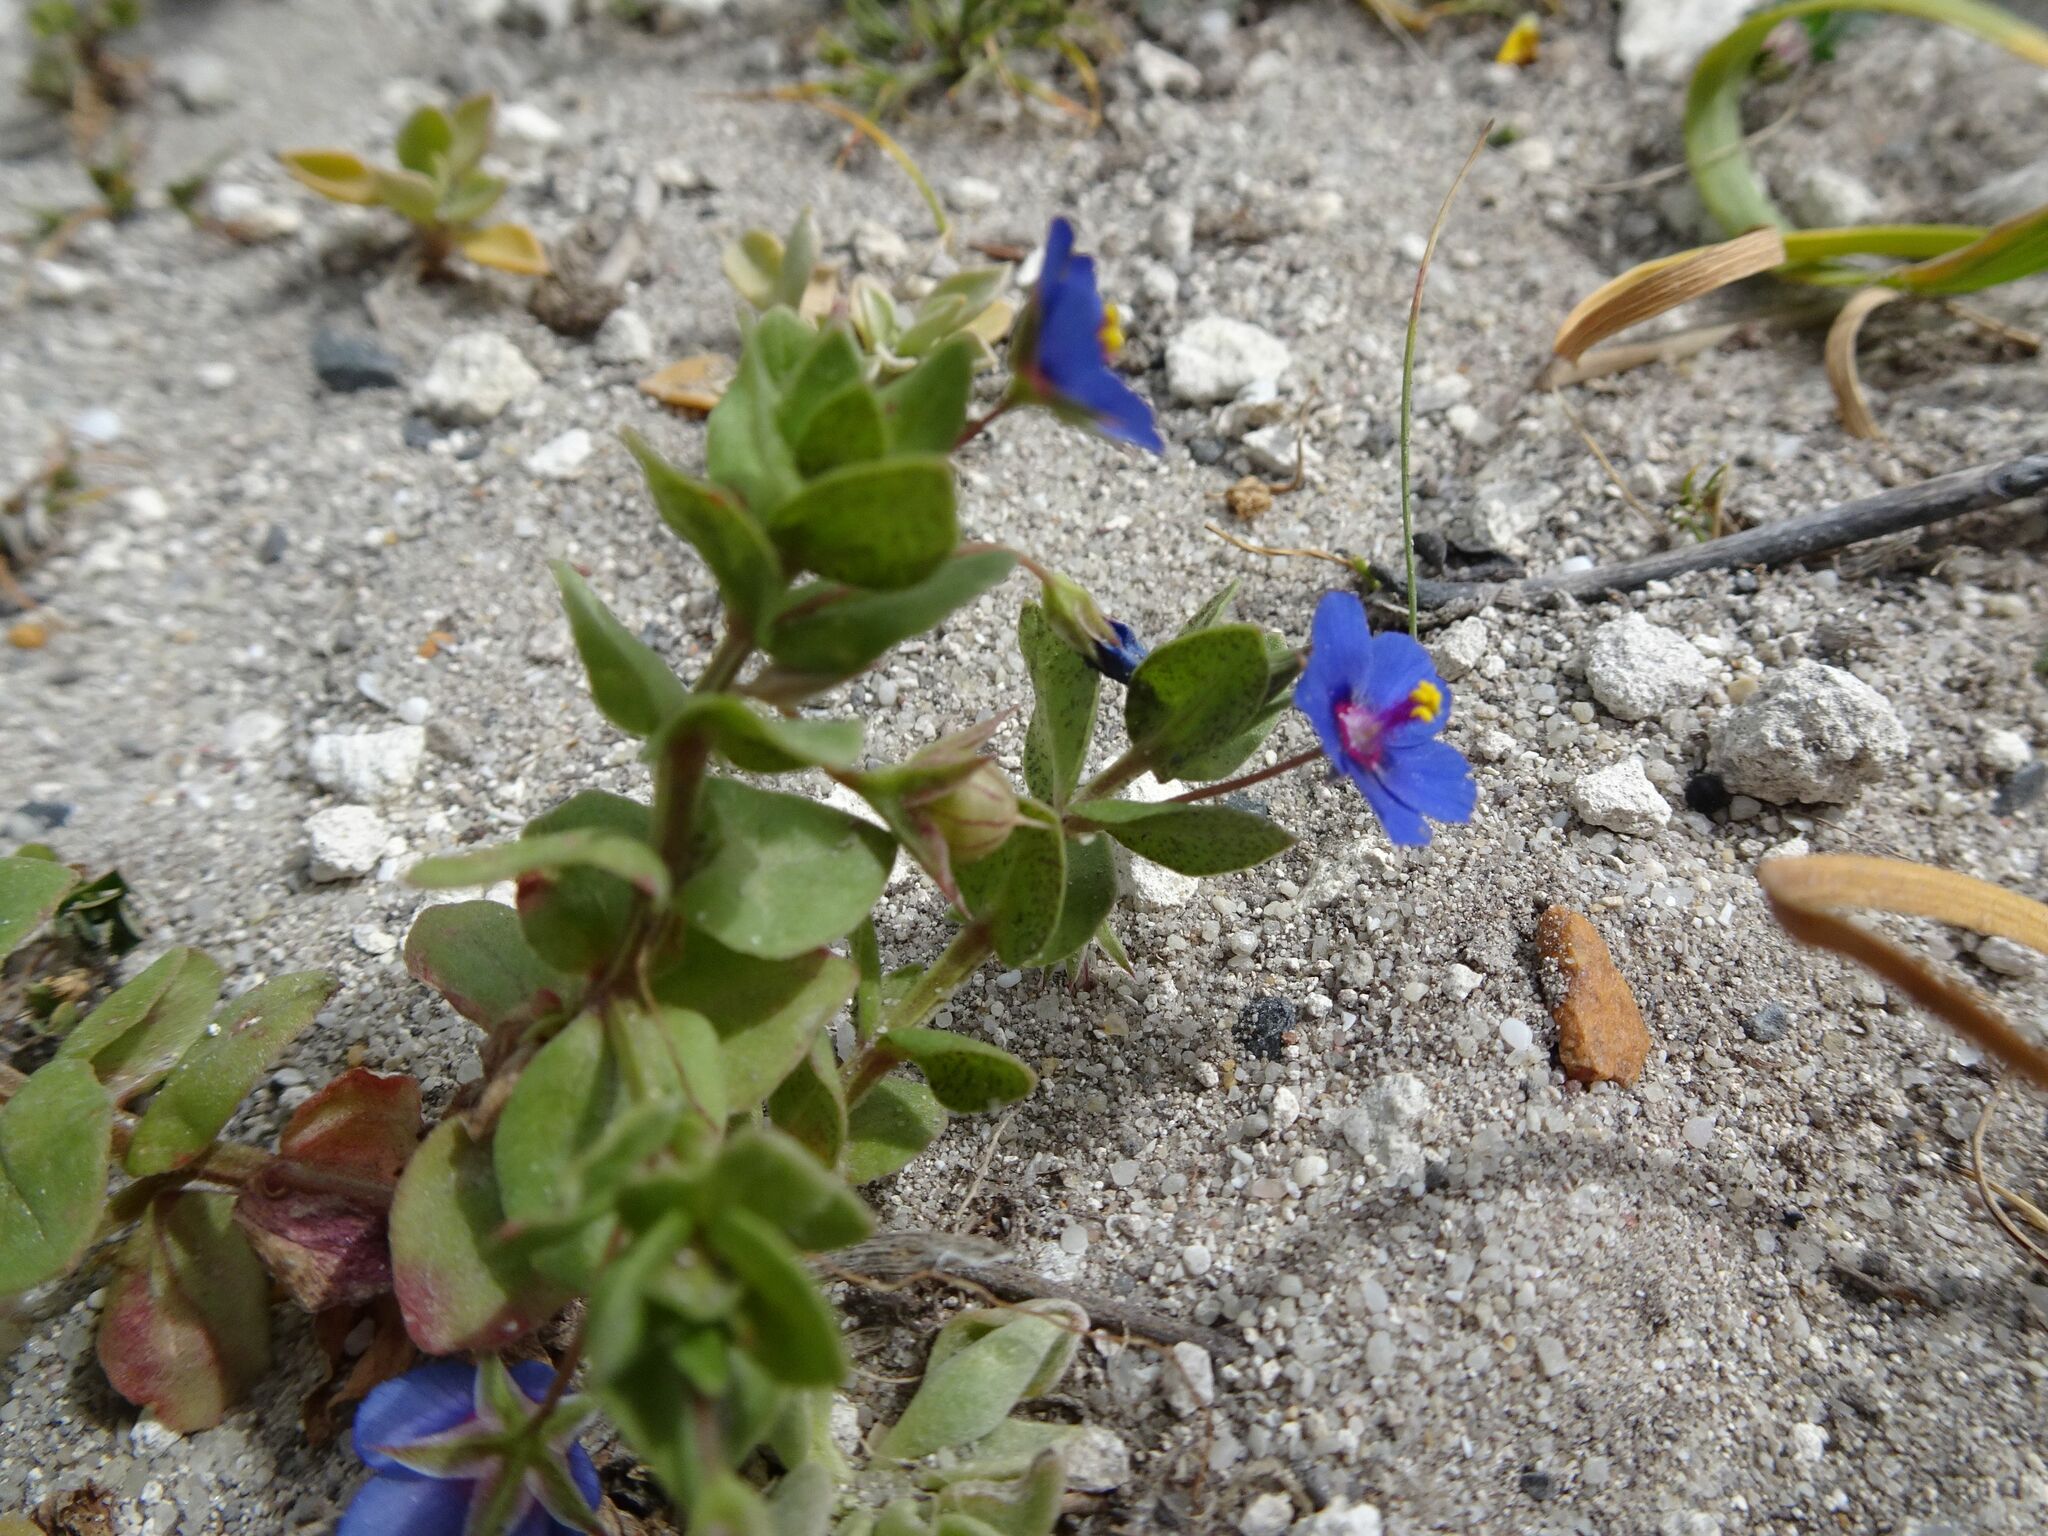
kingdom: Plantae
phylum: Tracheophyta
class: Magnoliopsida
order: Ericales
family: Primulaceae
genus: Lysimachia
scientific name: Lysimachia loeflingii
